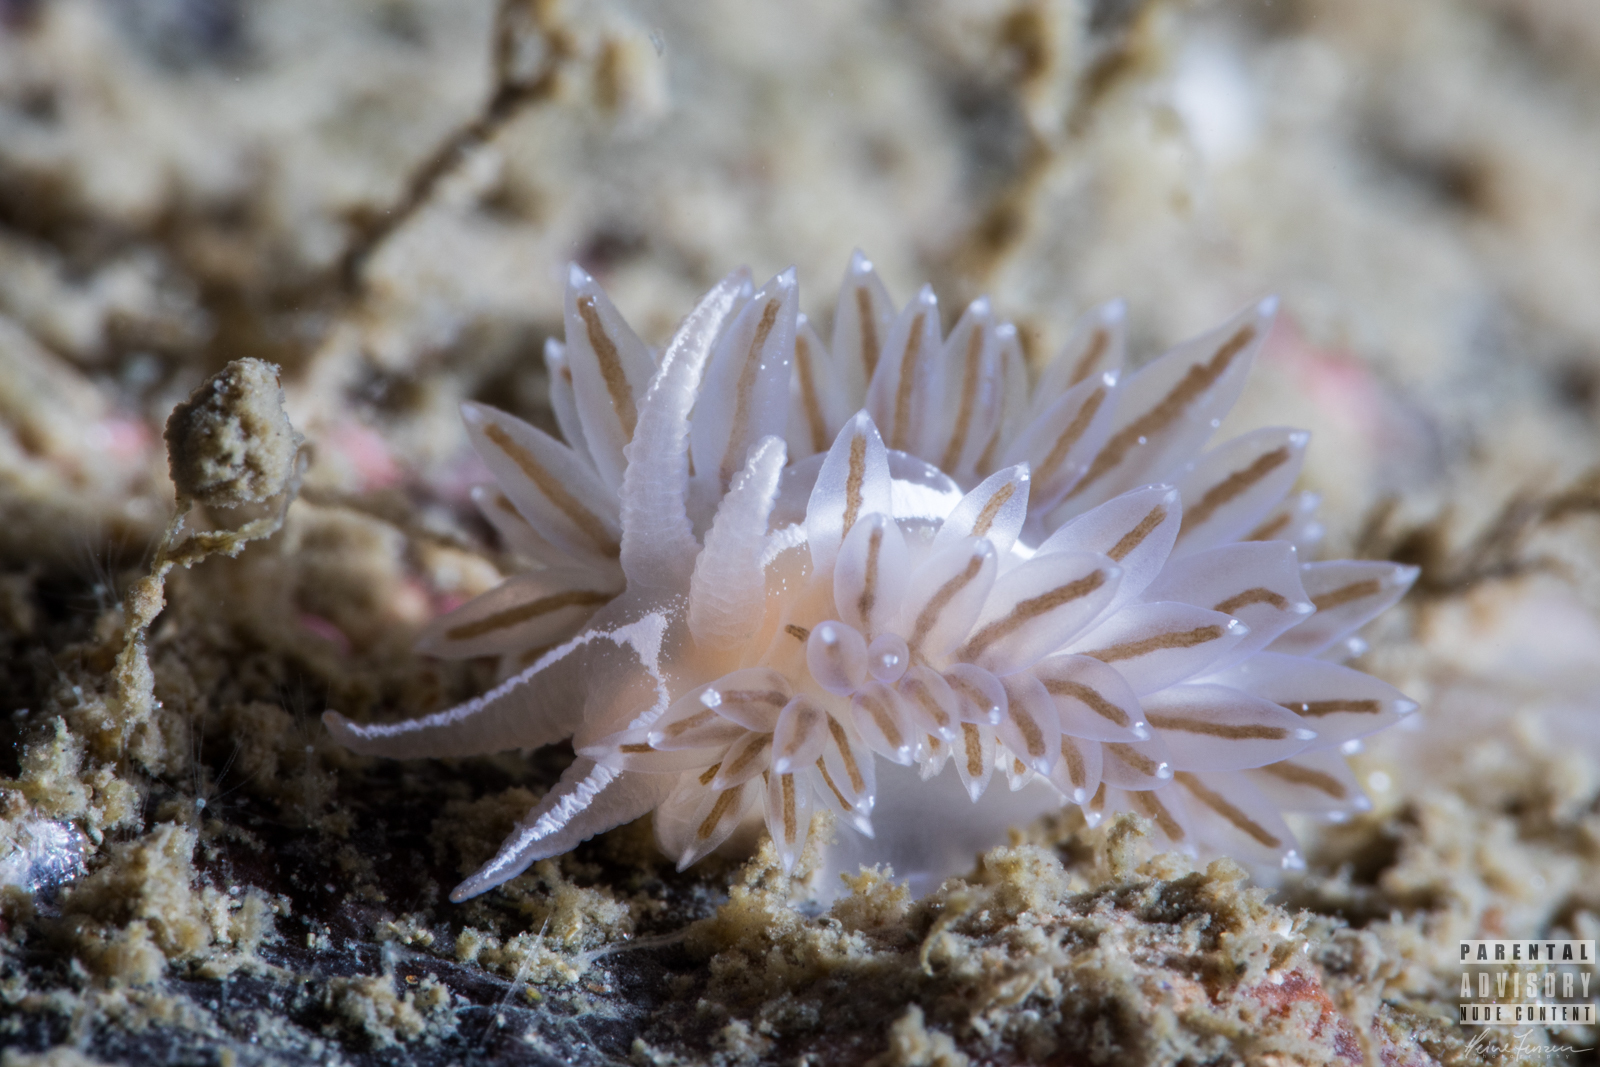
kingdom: Animalia
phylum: Mollusca
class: Gastropoda
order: Nudibranchia
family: Coryphellidae
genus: Coryphella
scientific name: Coryphella monicae
